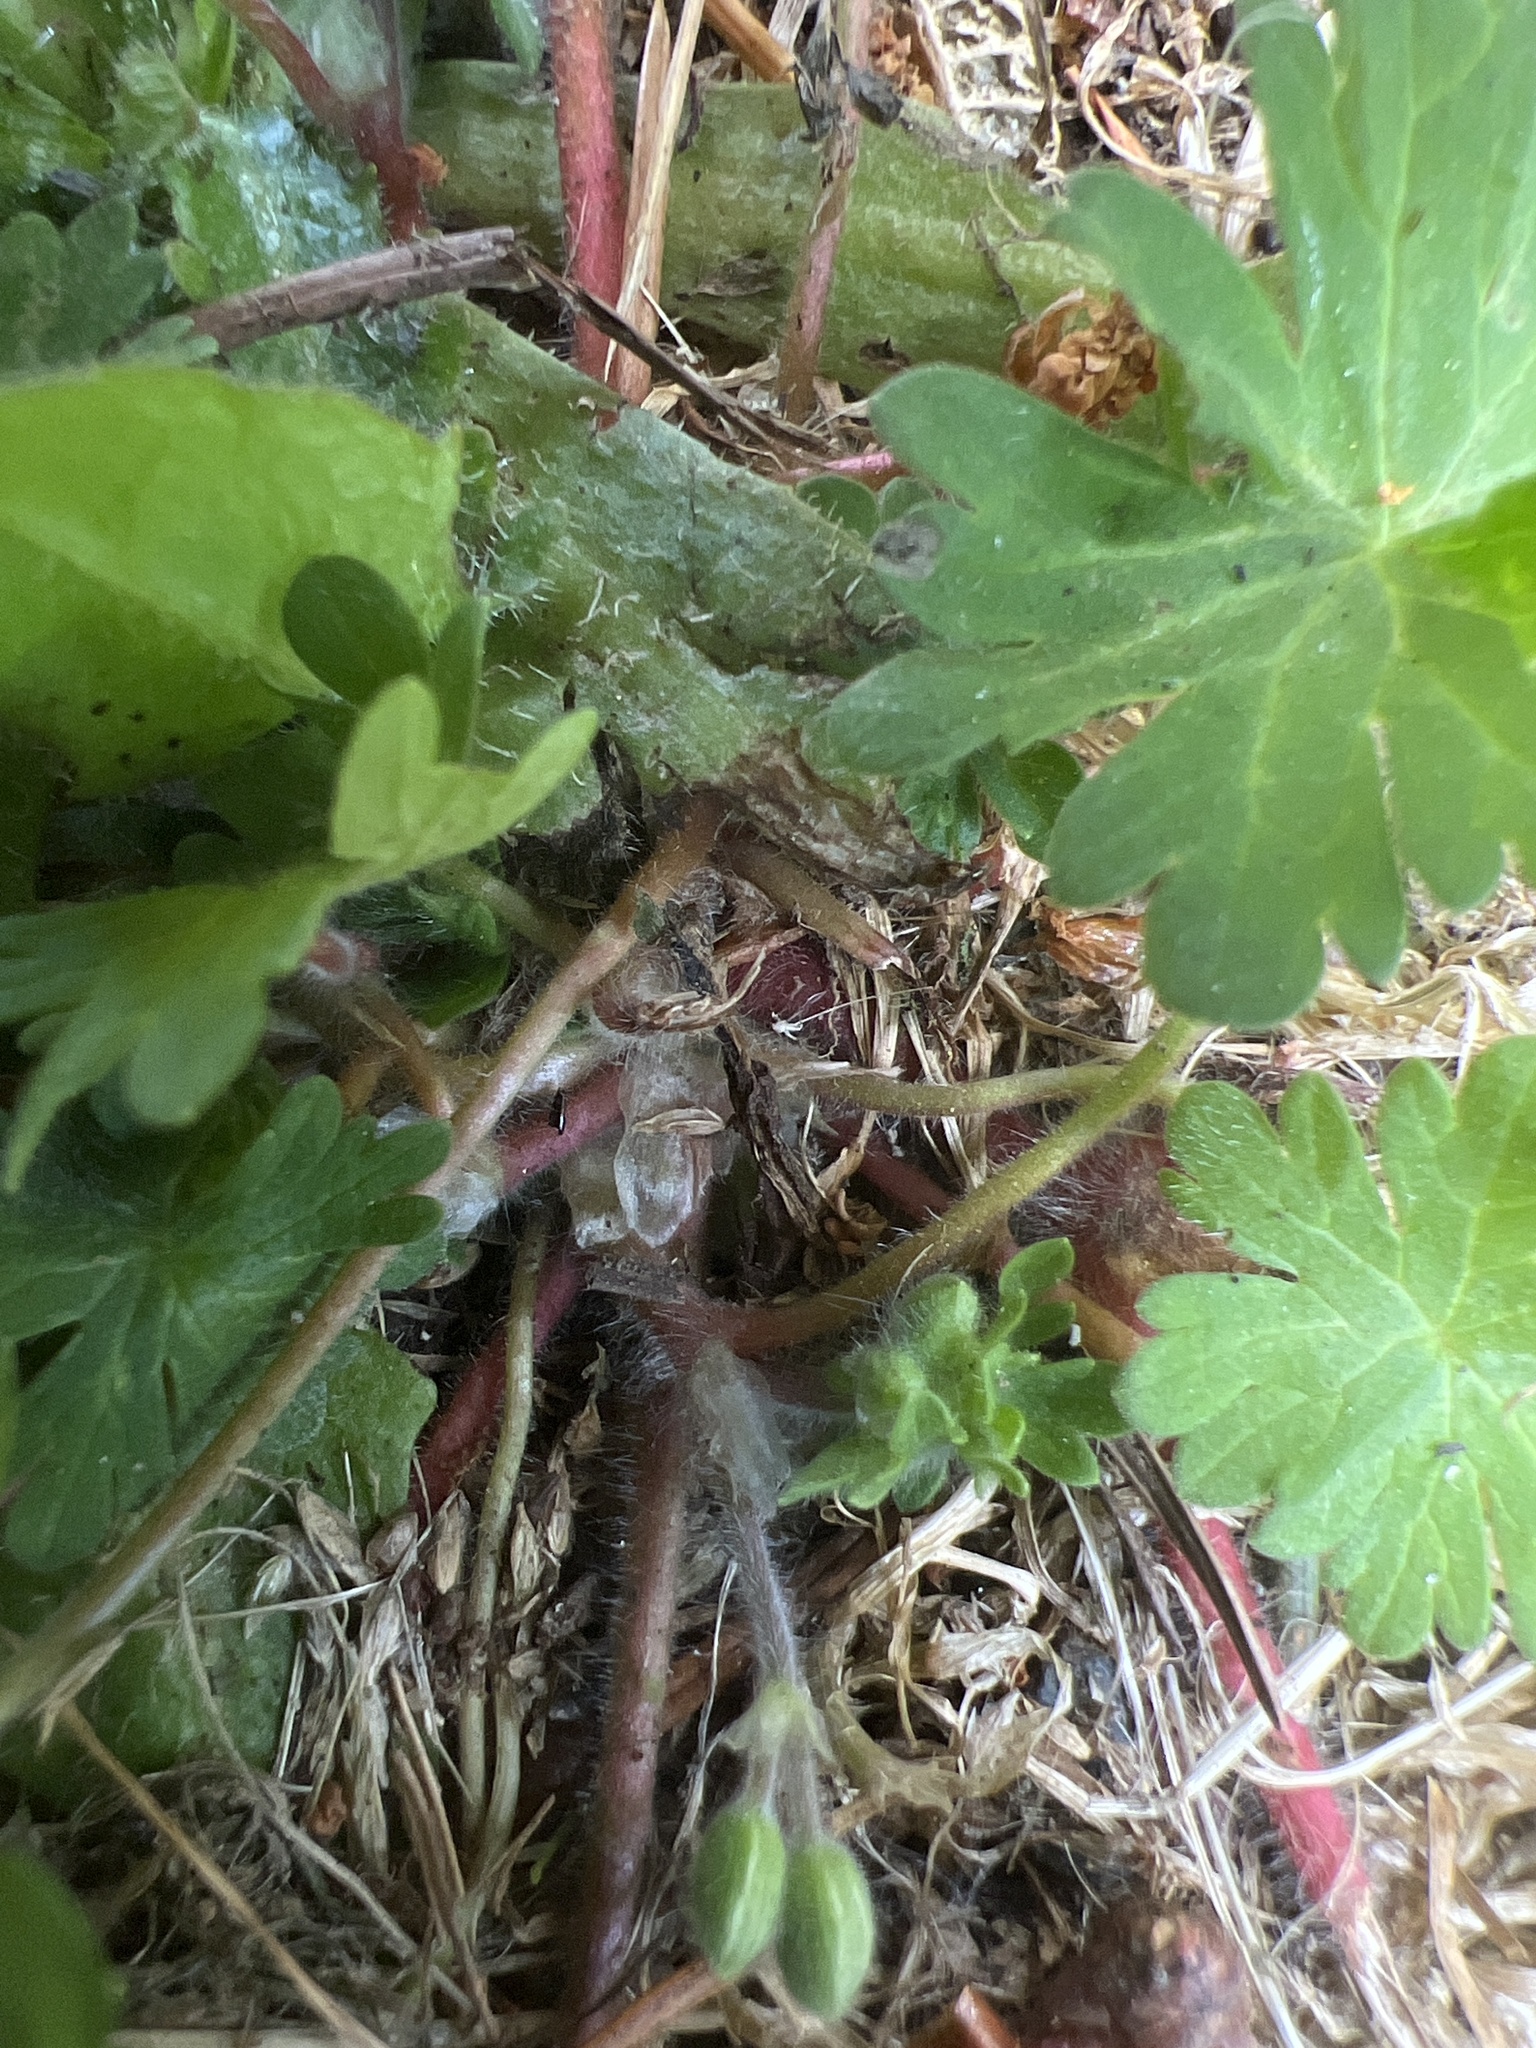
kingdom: Plantae
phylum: Tracheophyta
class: Magnoliopsida
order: Geraniales
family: Geraniaceae
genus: Geranium
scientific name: Geranium molle
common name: Dove's-foot crane's-bill
